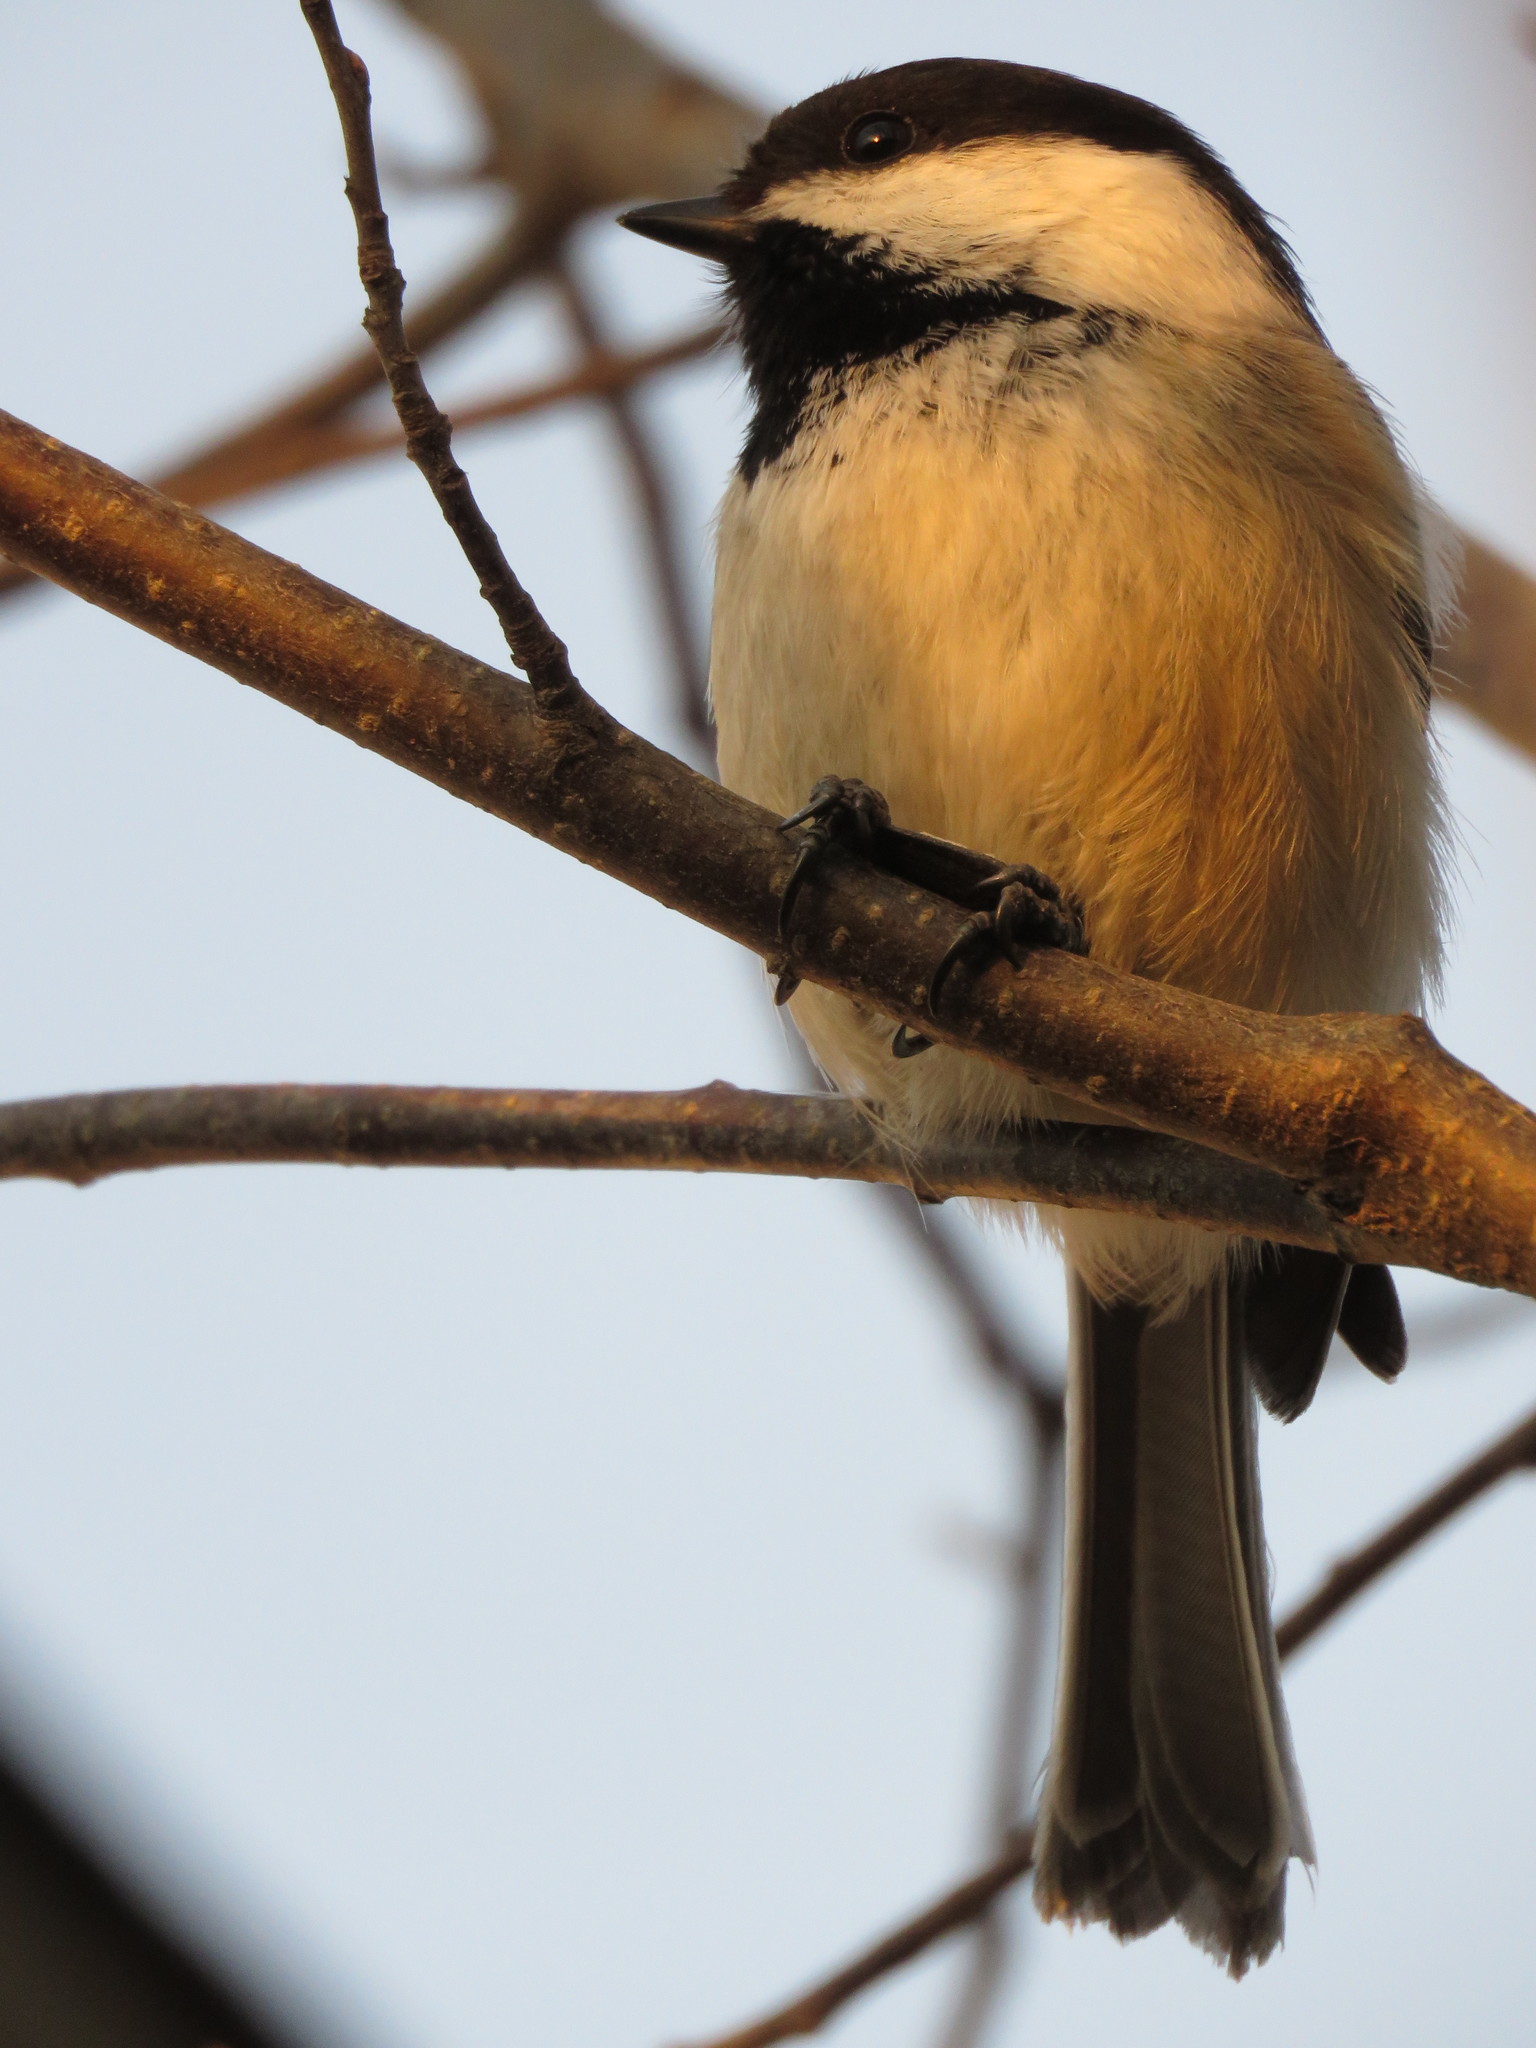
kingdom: Animalia
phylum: Chordata
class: Aves
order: Passeriformes
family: Paridae
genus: Poecile
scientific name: Poecile atricapillus
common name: Black-capped chickadee
